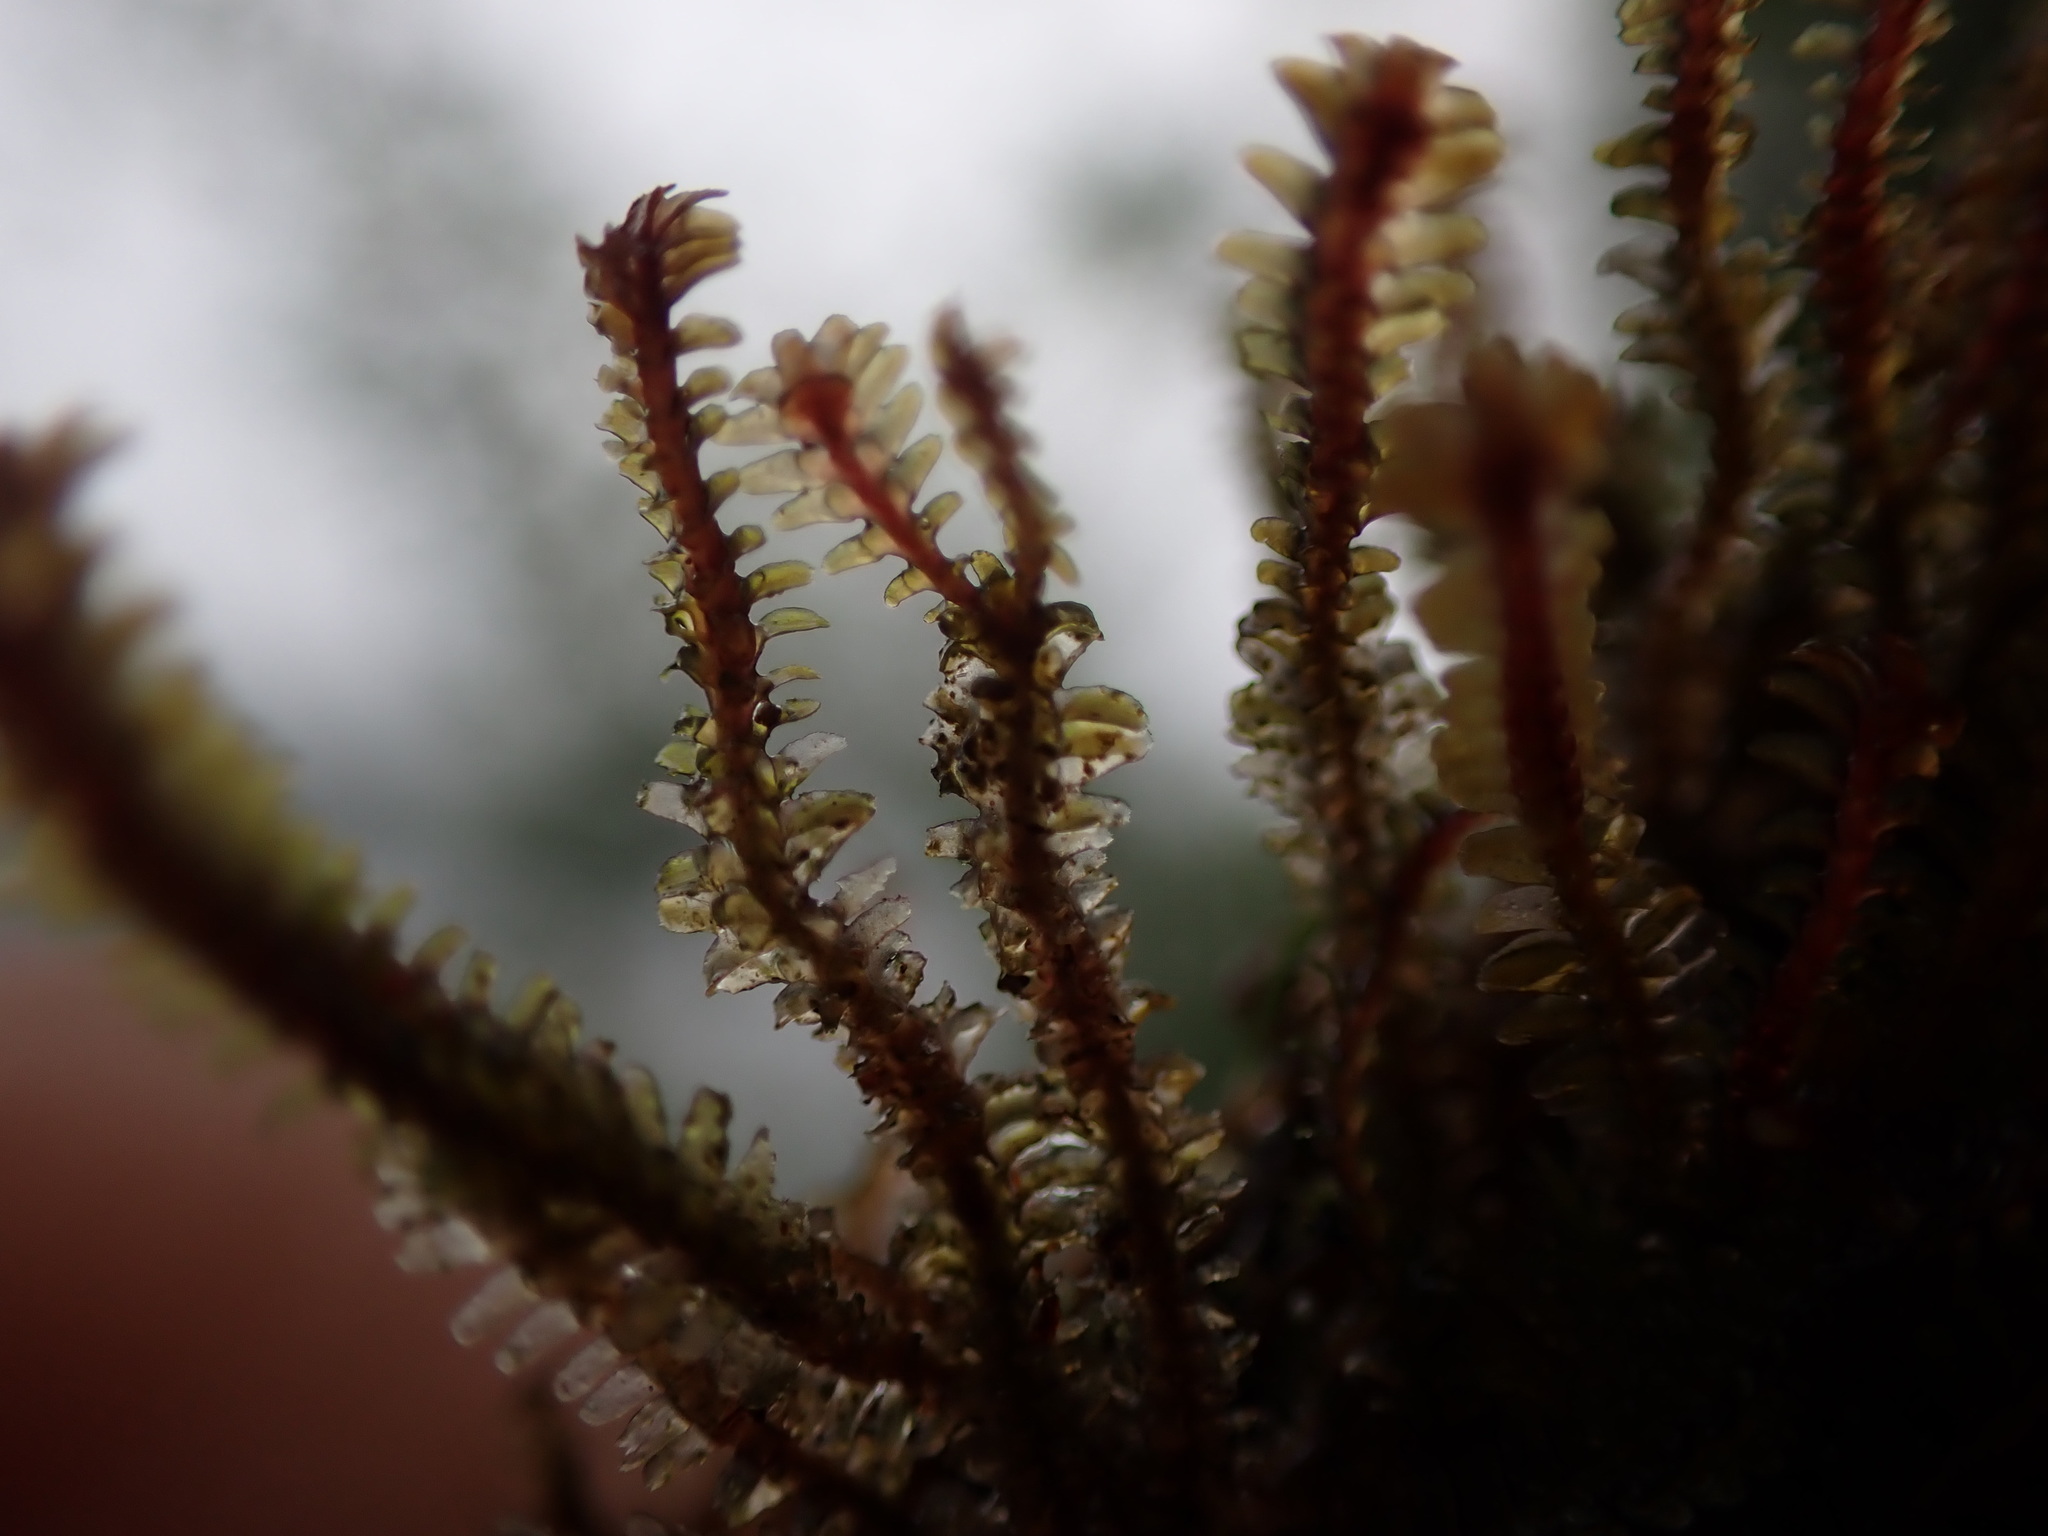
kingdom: Plantae
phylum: Marchantiophyta
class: Jungermanniopsida
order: Jungermanniales
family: Scapaniaceae
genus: Diplophyllum
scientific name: Diplophyllum albicans
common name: White earwort
